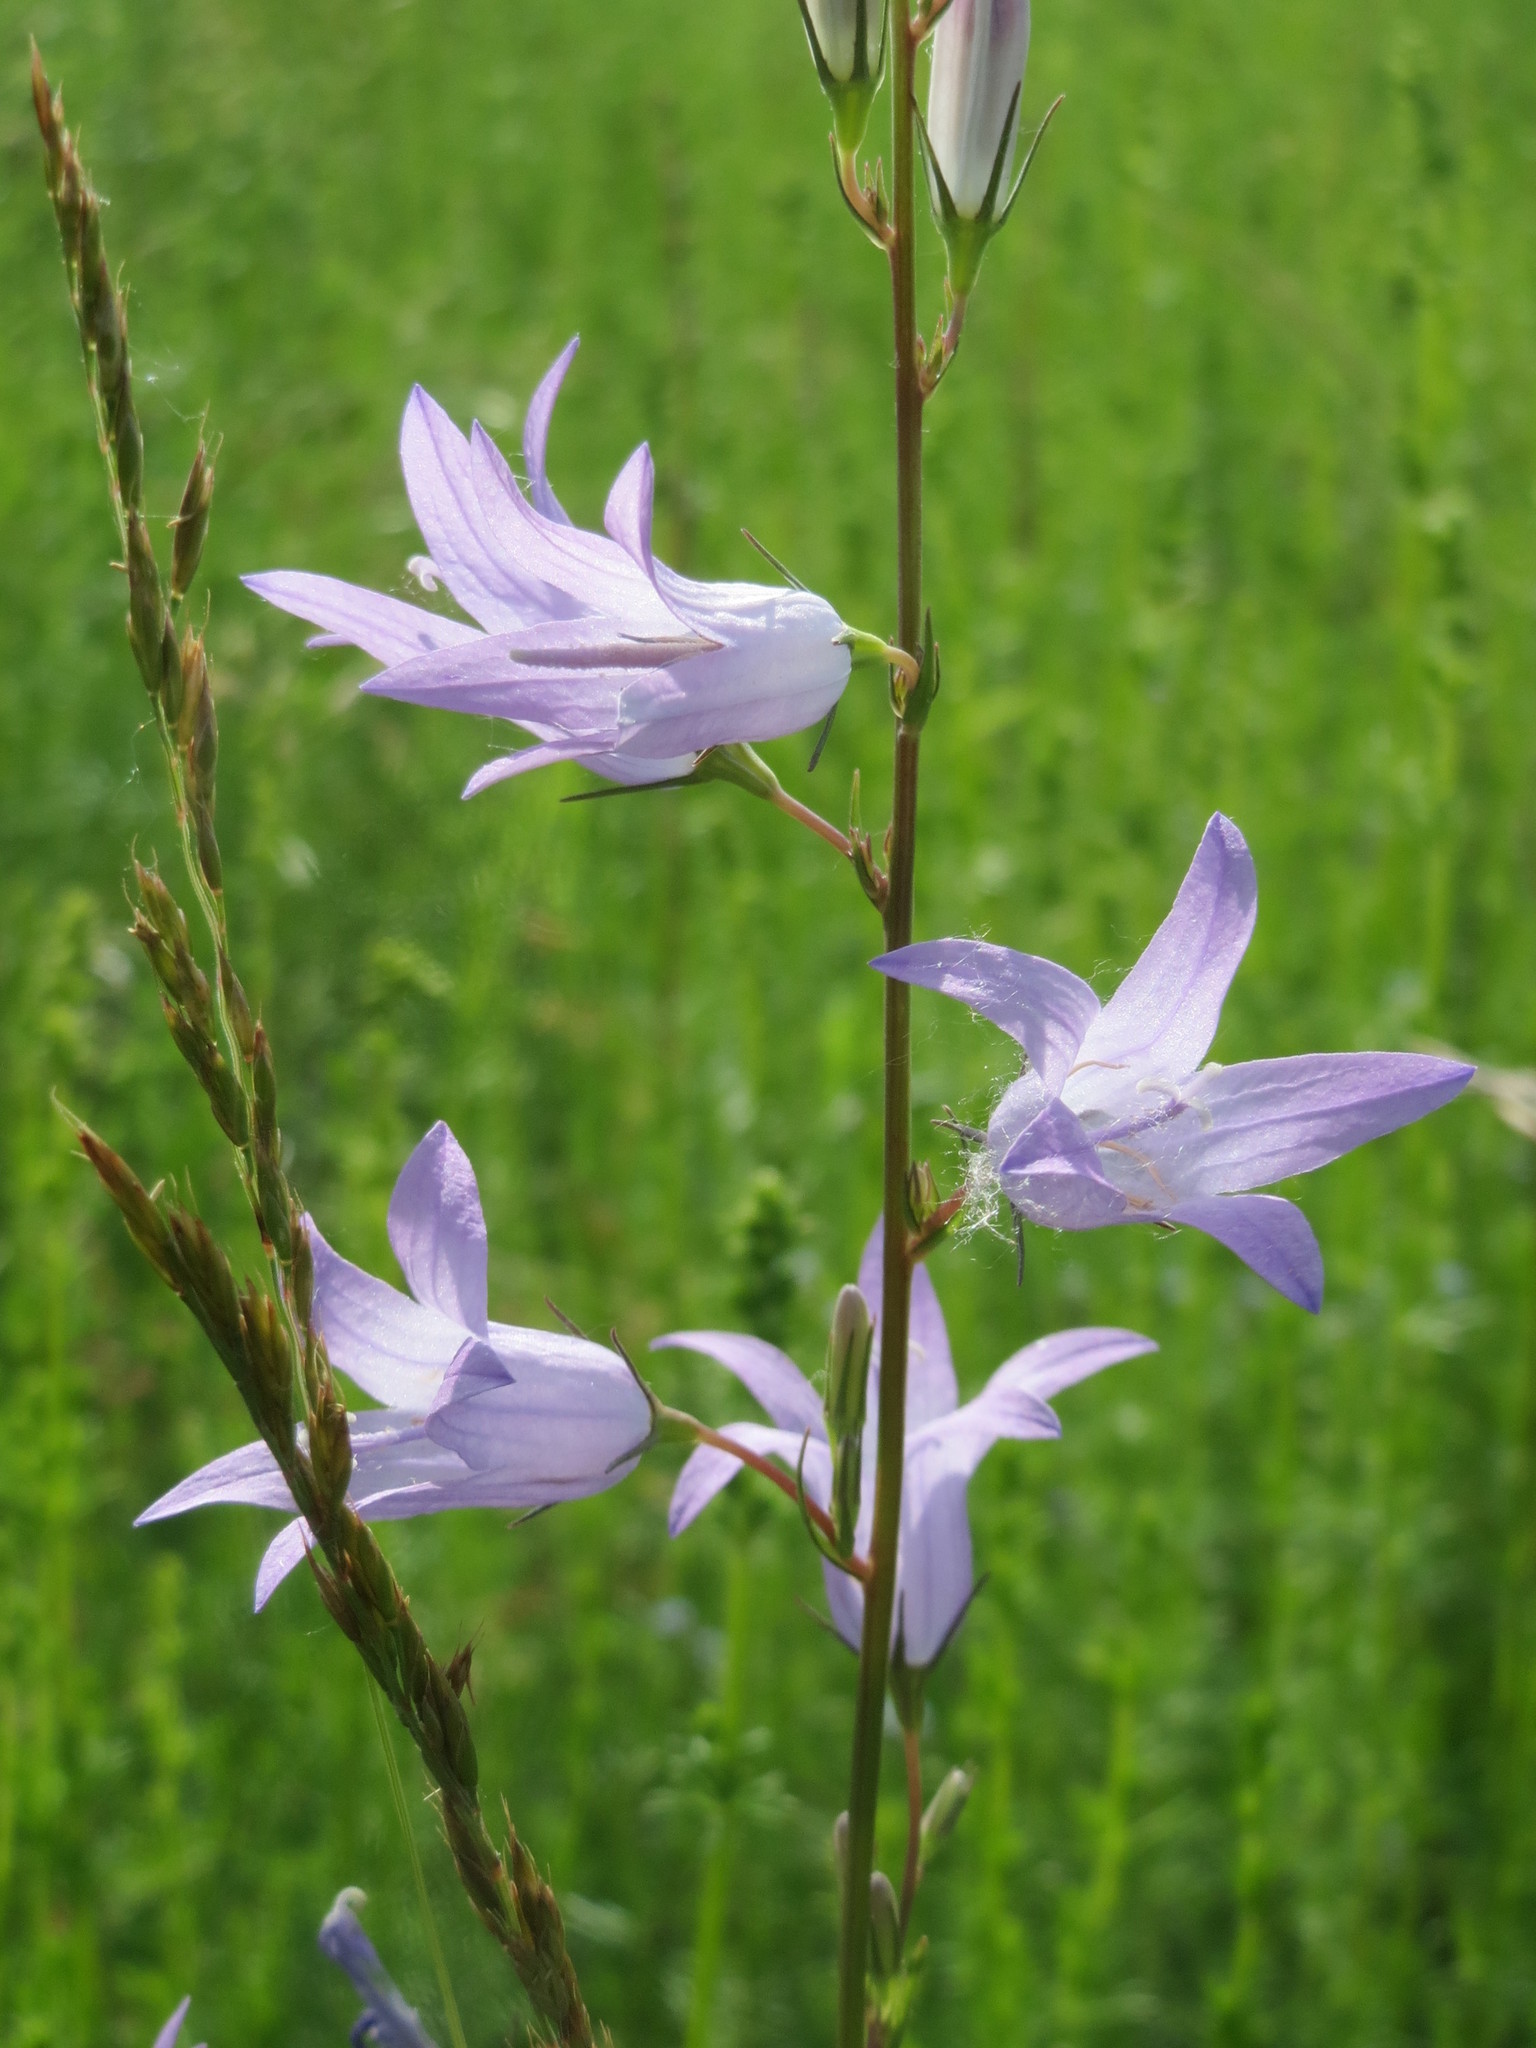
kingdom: Plantae
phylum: Tracheophyta
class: Magnoliopsida
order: Asterales
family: Campanulaceae
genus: Campanula
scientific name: Campanula rapunculus
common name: Rampion bellflower
